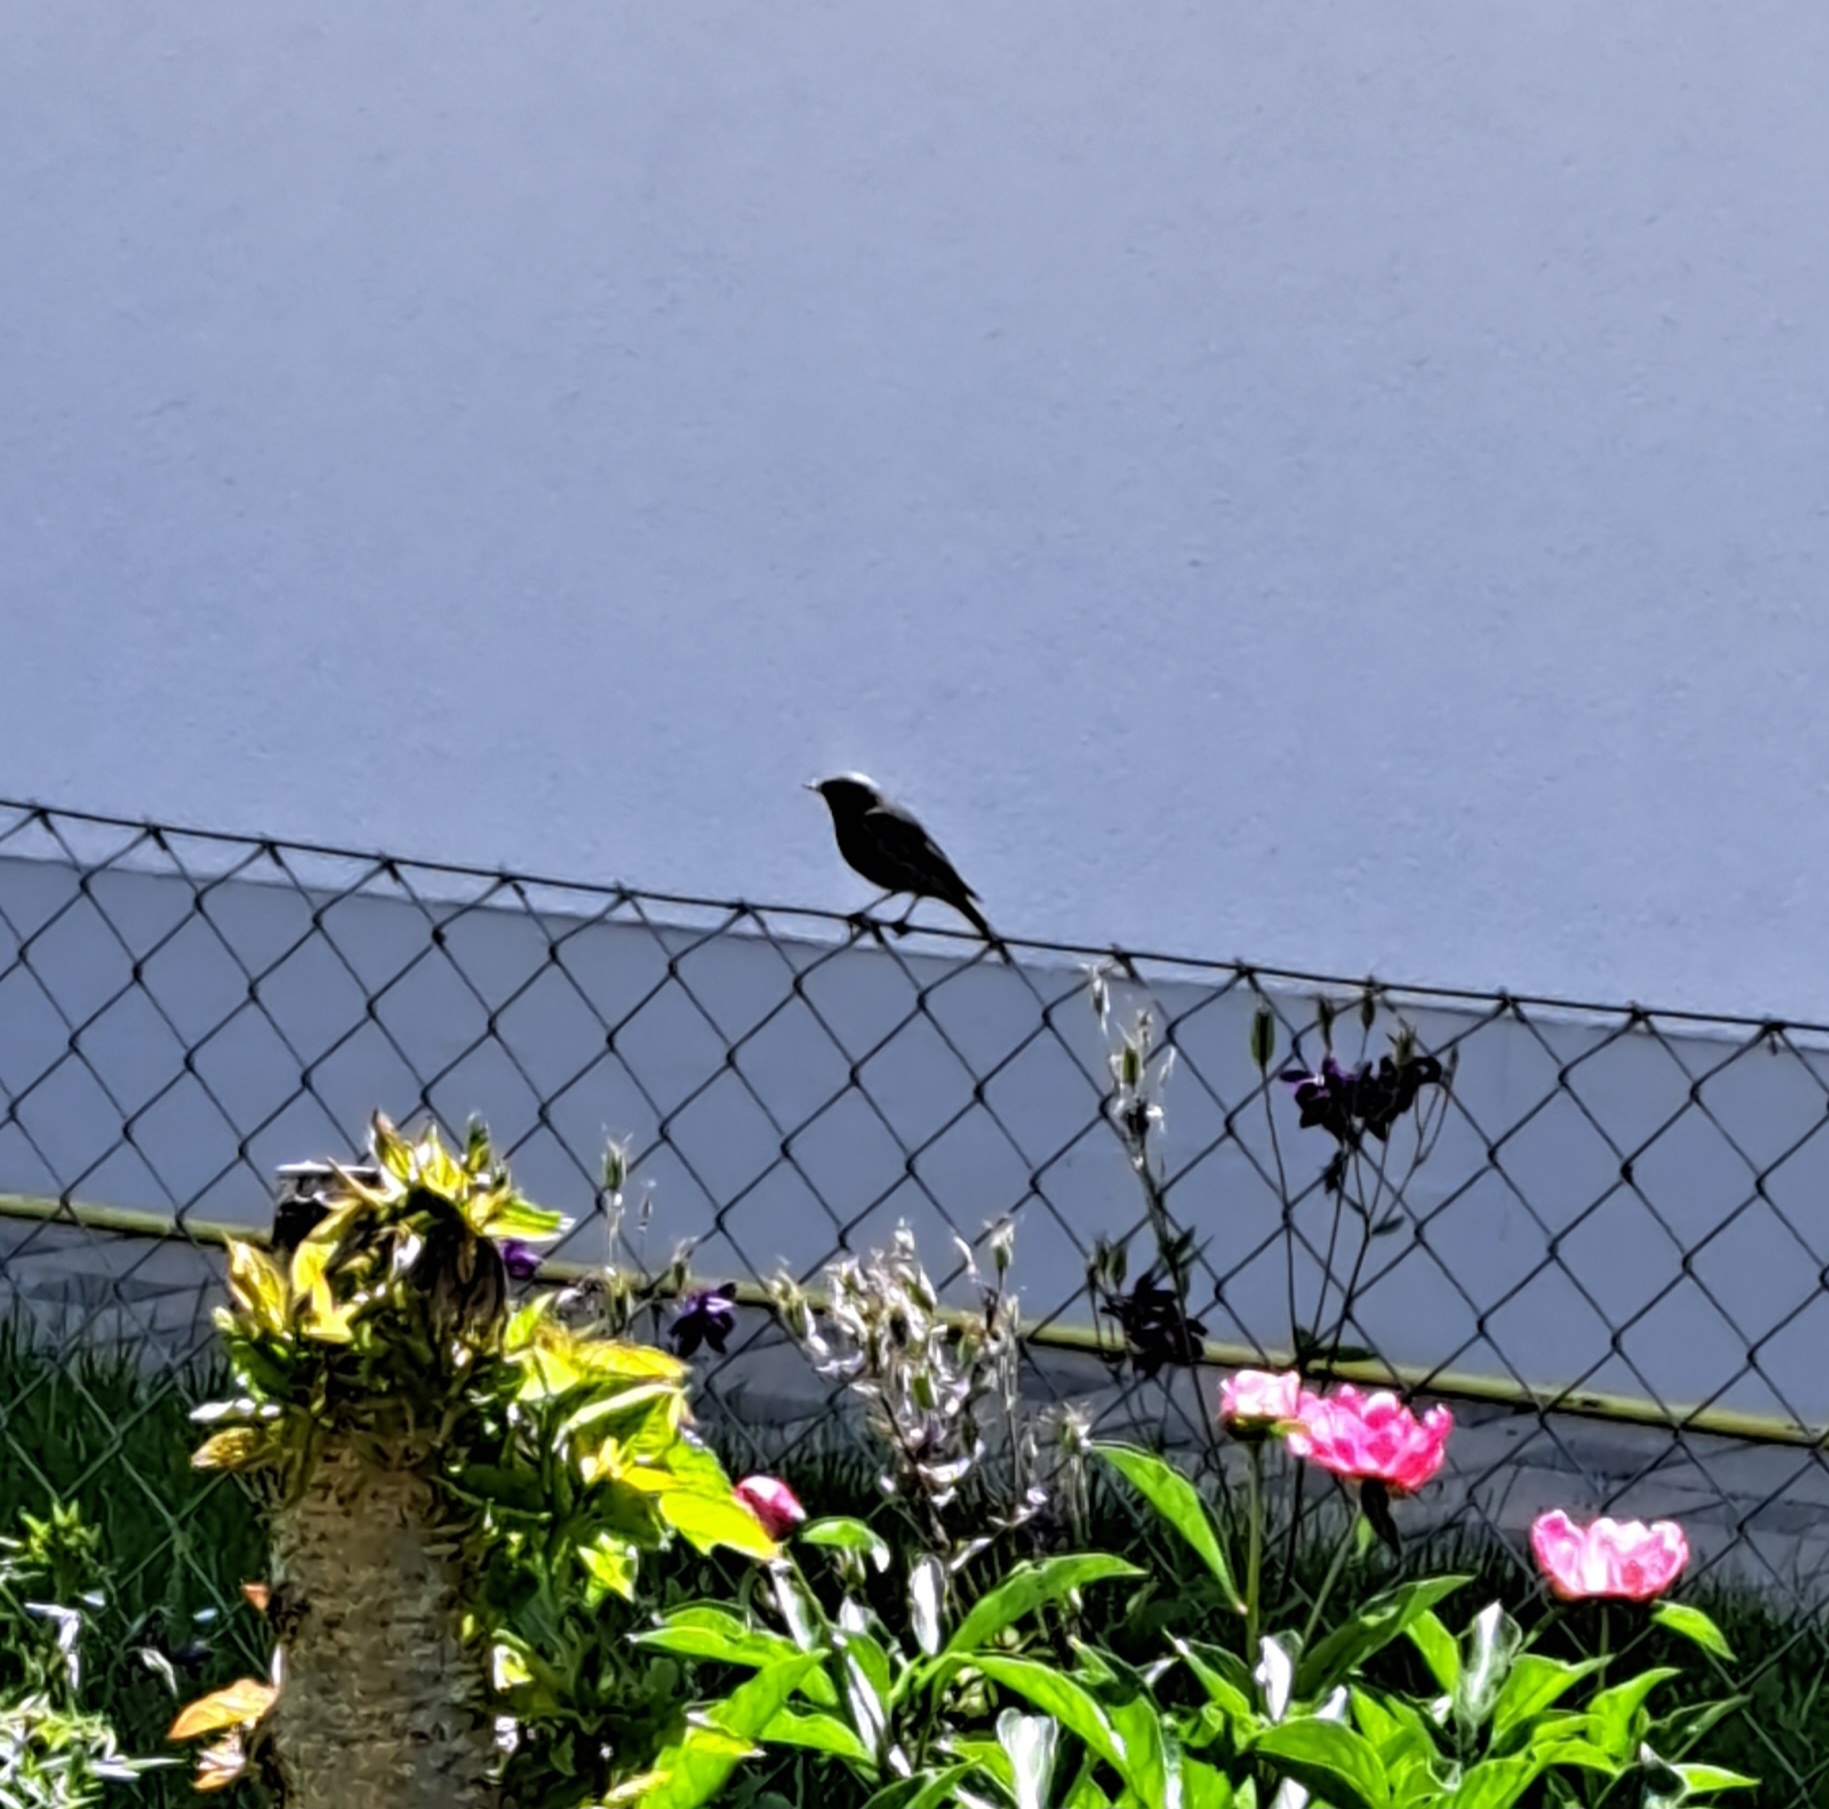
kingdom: Animalia
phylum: Chordata
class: Aves
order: Passeriformes
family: Muscicapidae
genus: Phoenicurus
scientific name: Phoenicurus ochruros
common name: Black redstart
